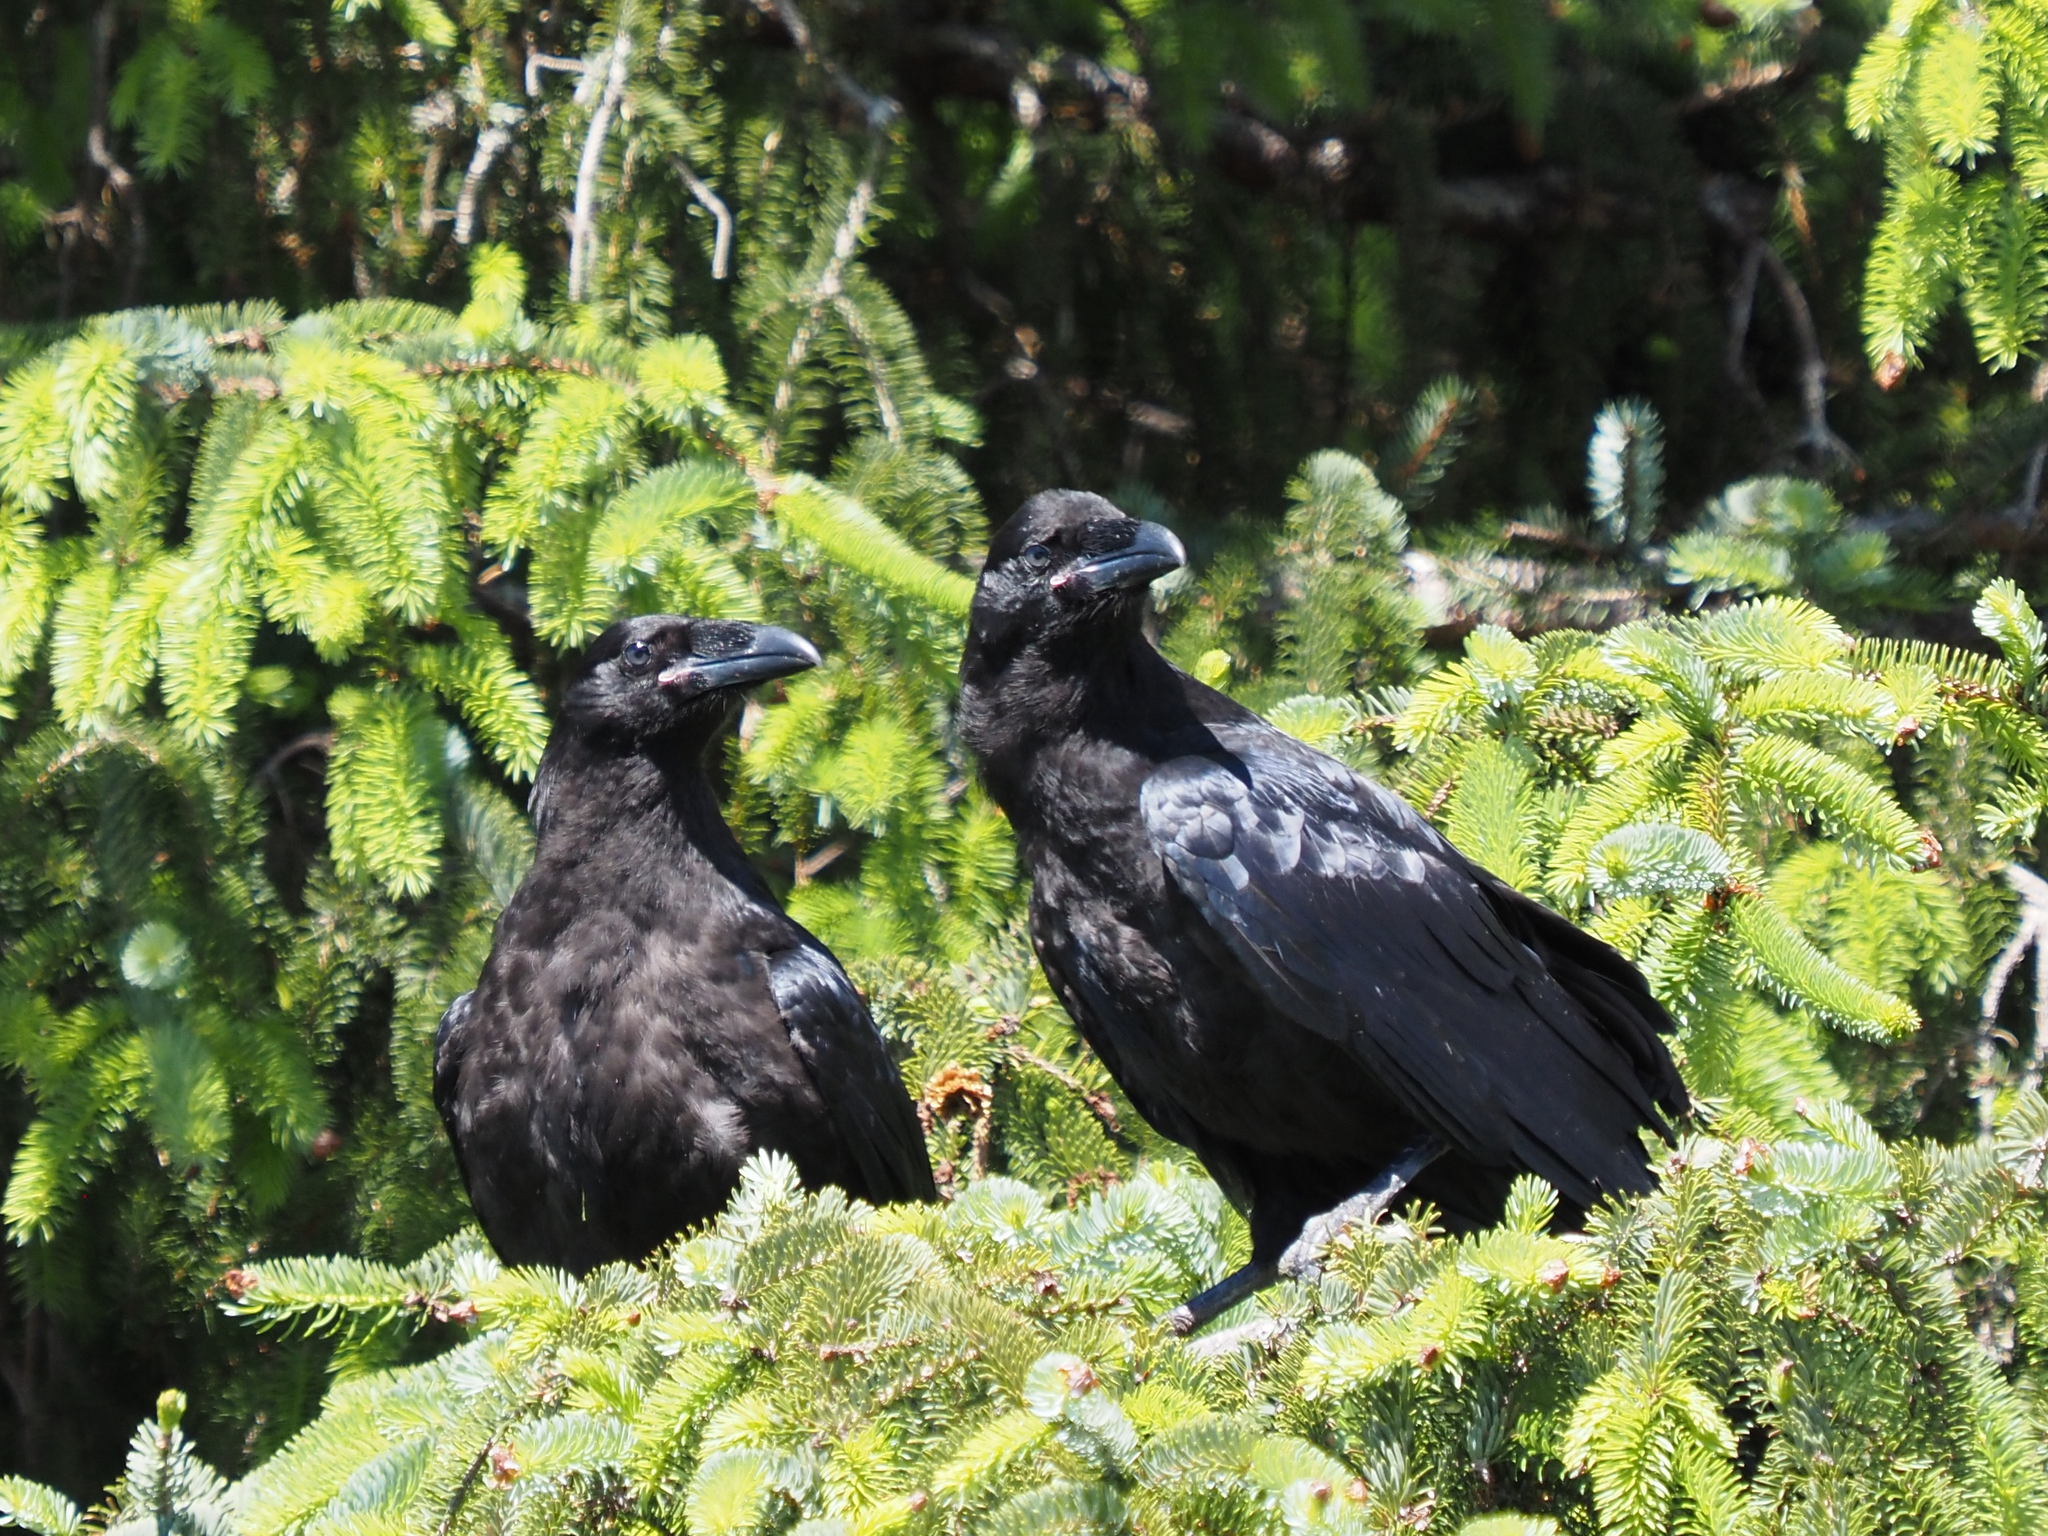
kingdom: Animalia
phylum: Chordata
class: Aves
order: Passeriformes
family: Corvidae
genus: Corvus
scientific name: Corvus corax
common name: Common raven
